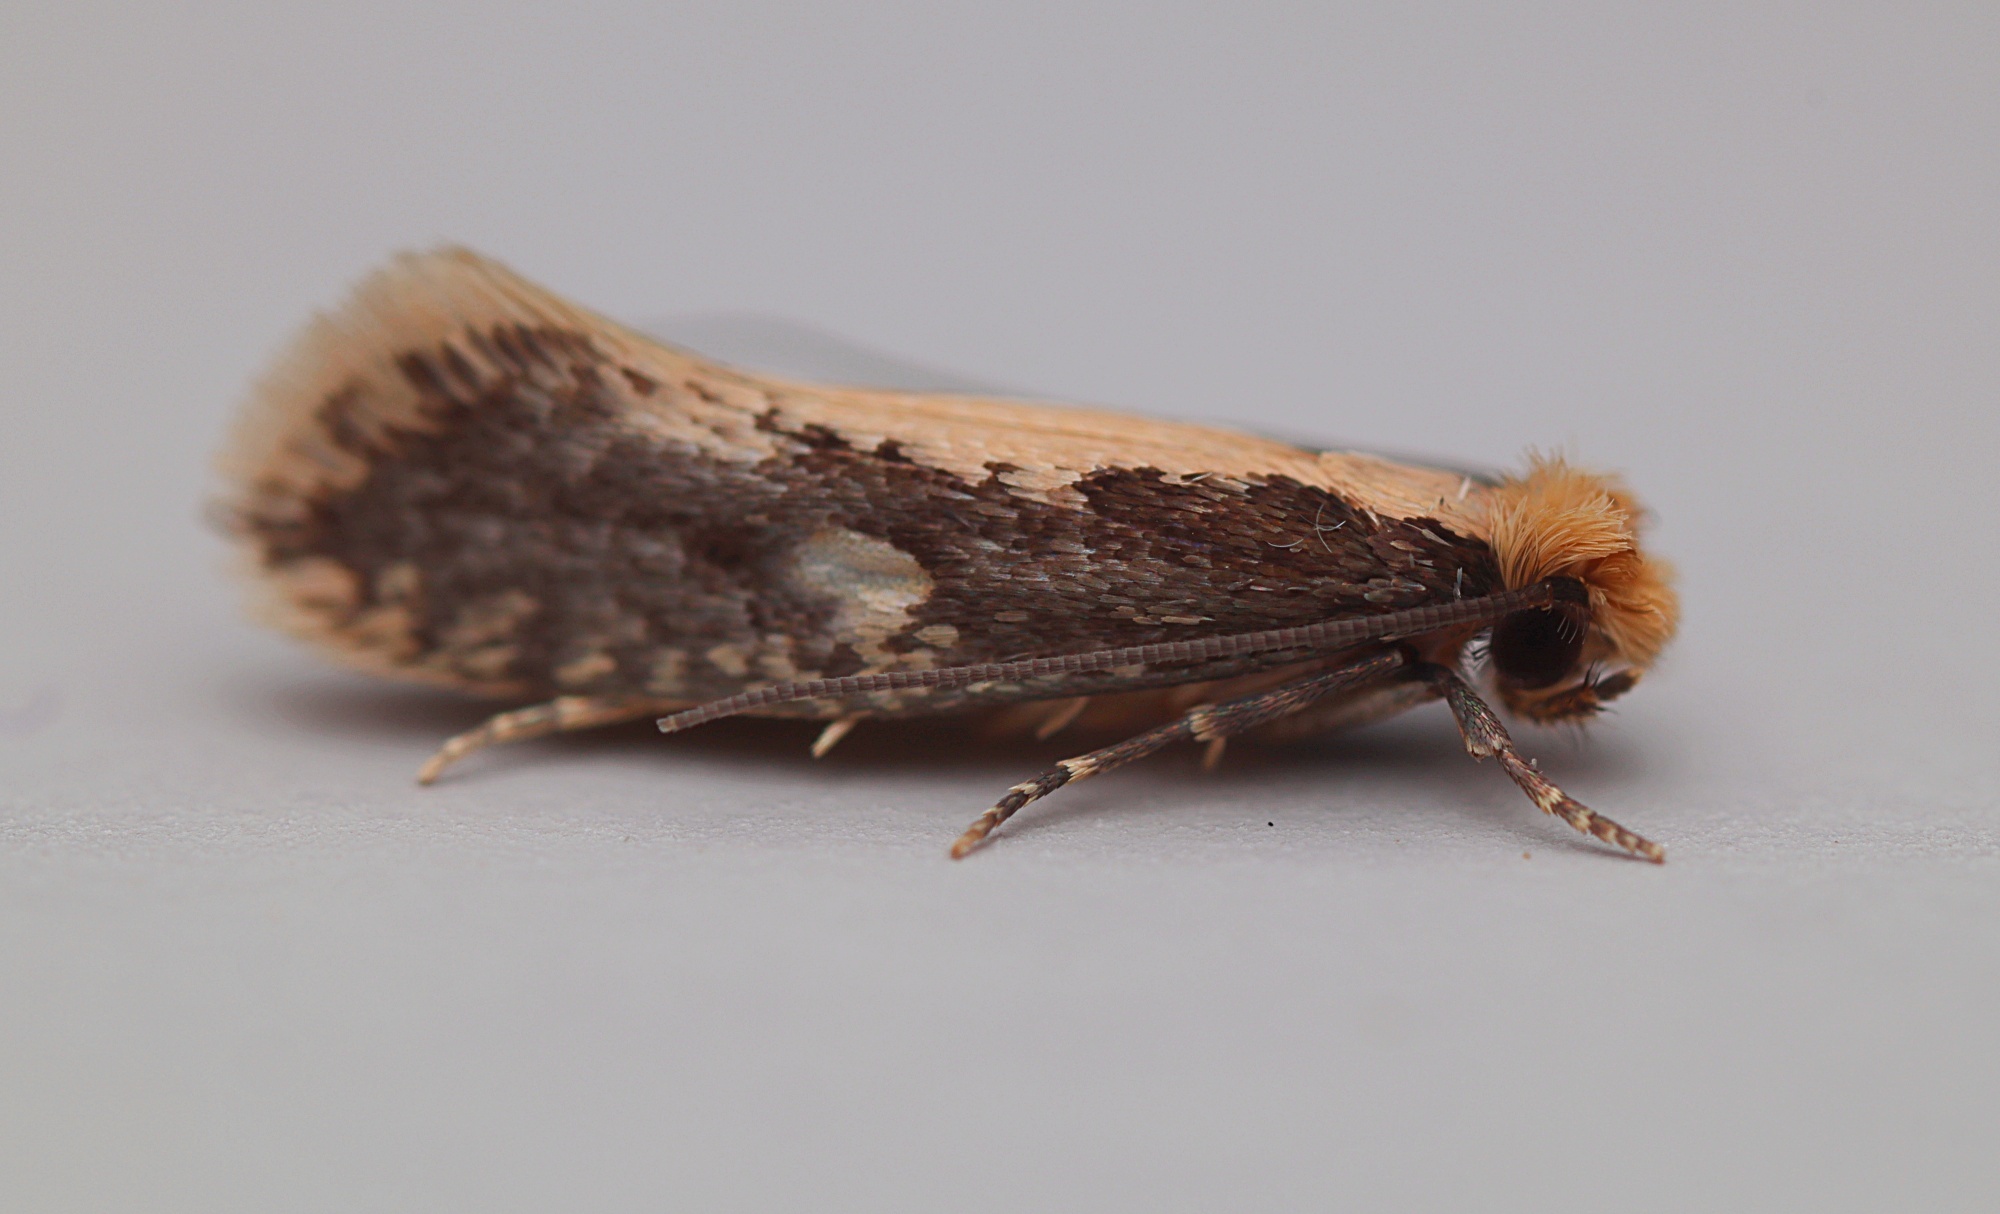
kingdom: Animalia
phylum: Arthropoda
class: Insecta
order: Lepidoptera
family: Tineidae
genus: Monopis
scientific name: Monopis crocicapitella
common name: Moth
